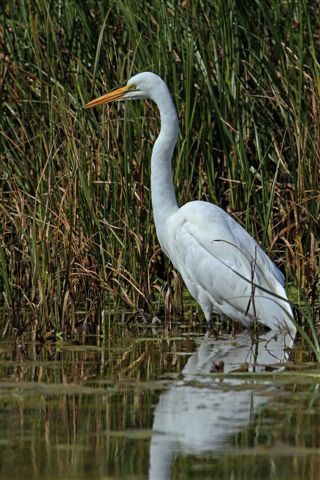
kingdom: Animalia
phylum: Chordata
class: Aves
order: Pelecaniformes
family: Ardeidae
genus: Ardea
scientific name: Ardea alba
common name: Great egret
